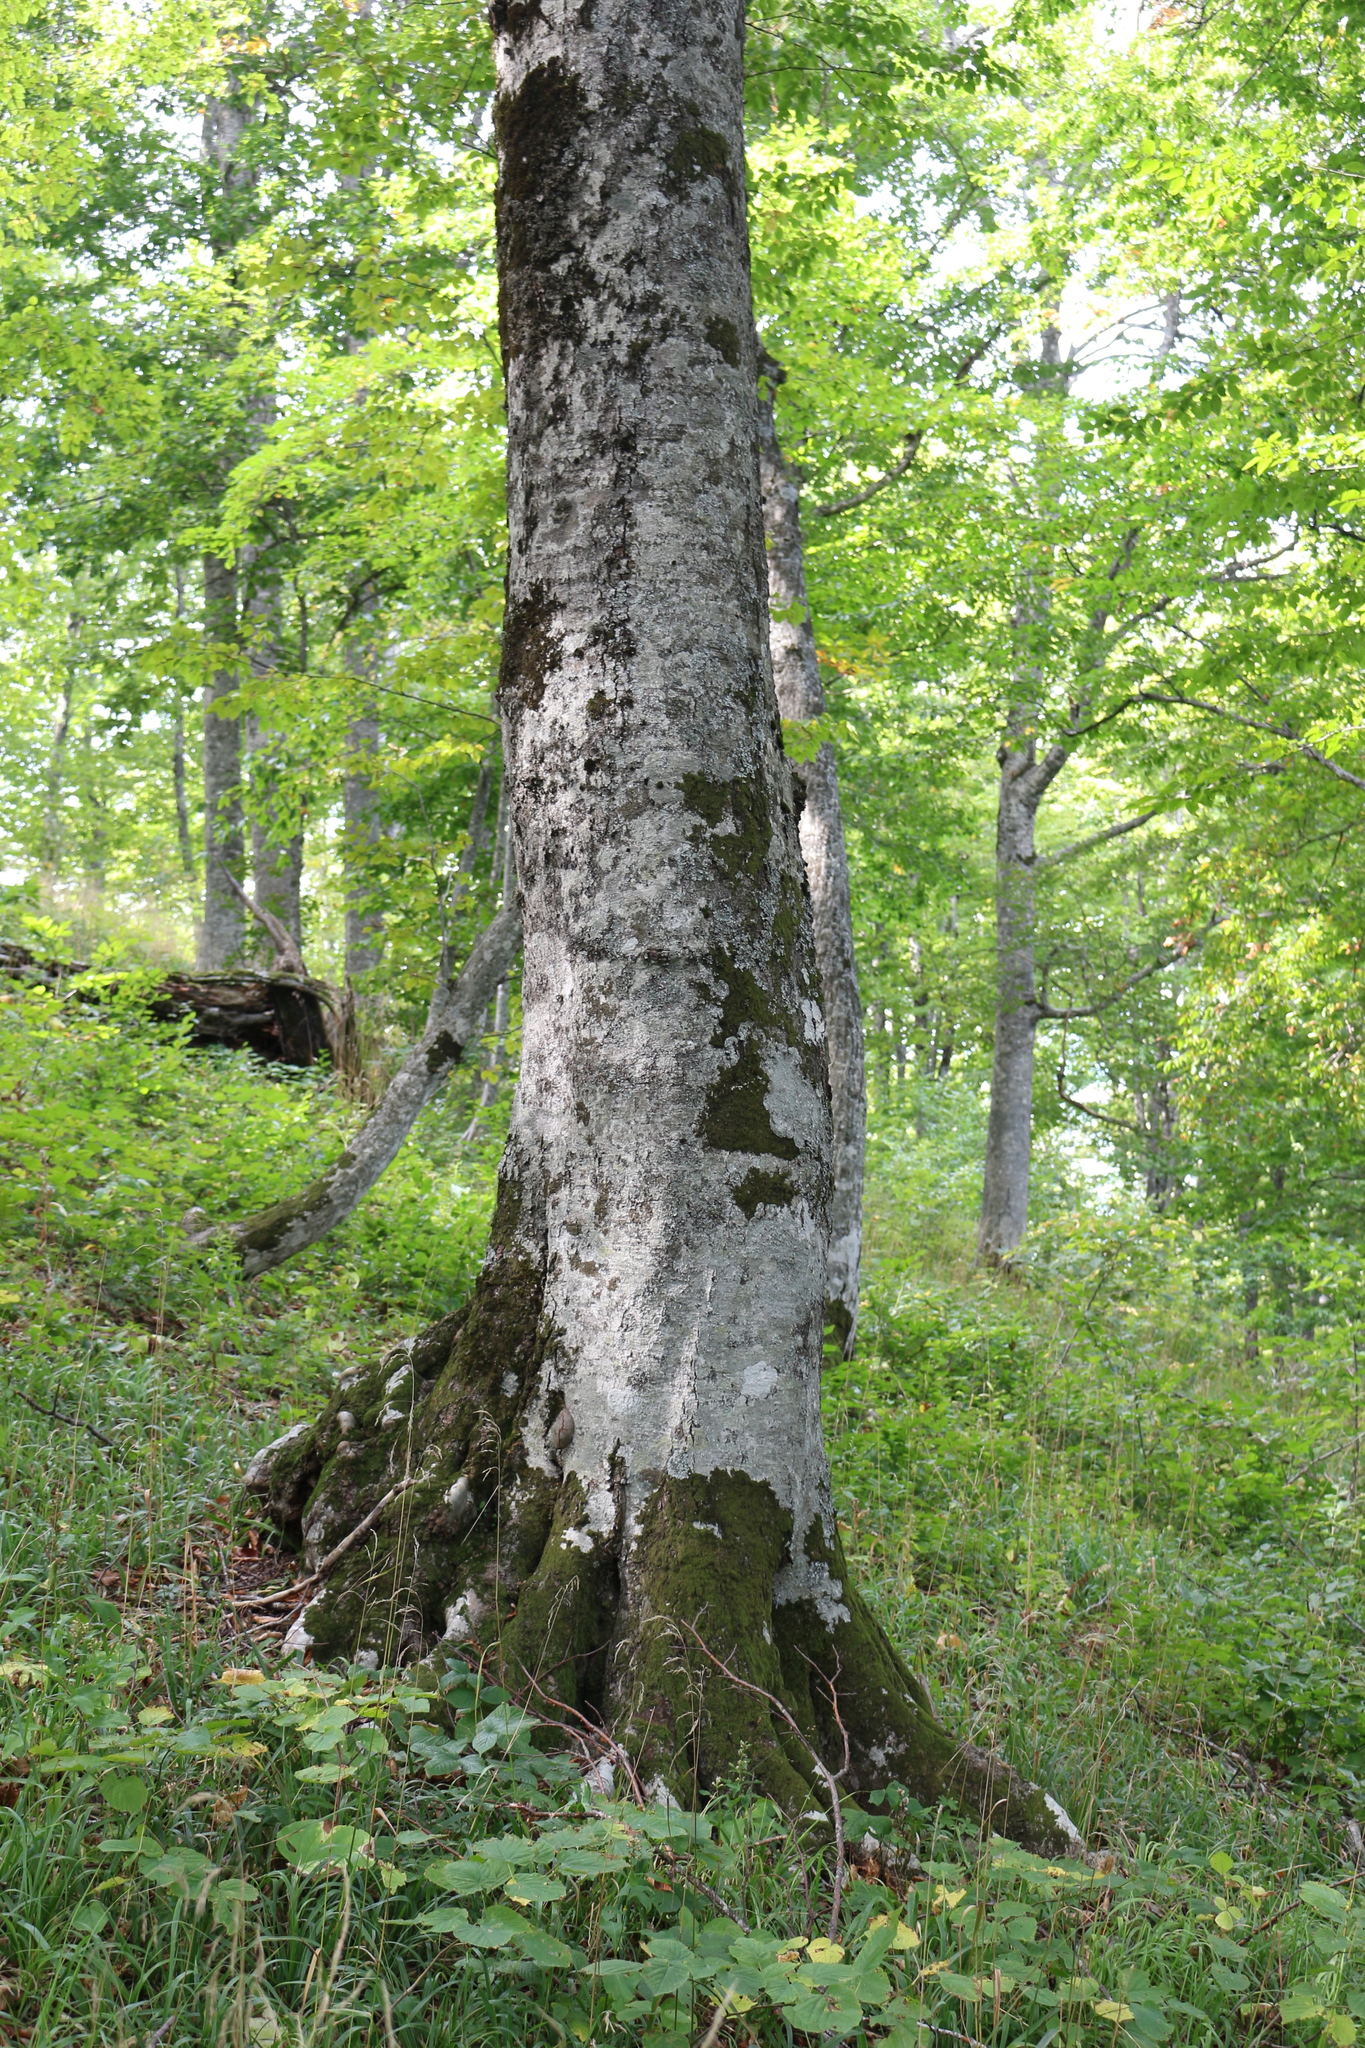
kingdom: Plantae
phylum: Tracheophyta
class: Magnoliopsida
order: Fagales
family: Fagaceae
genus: Fagus
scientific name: Fagus orientalis
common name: Oriental beech
